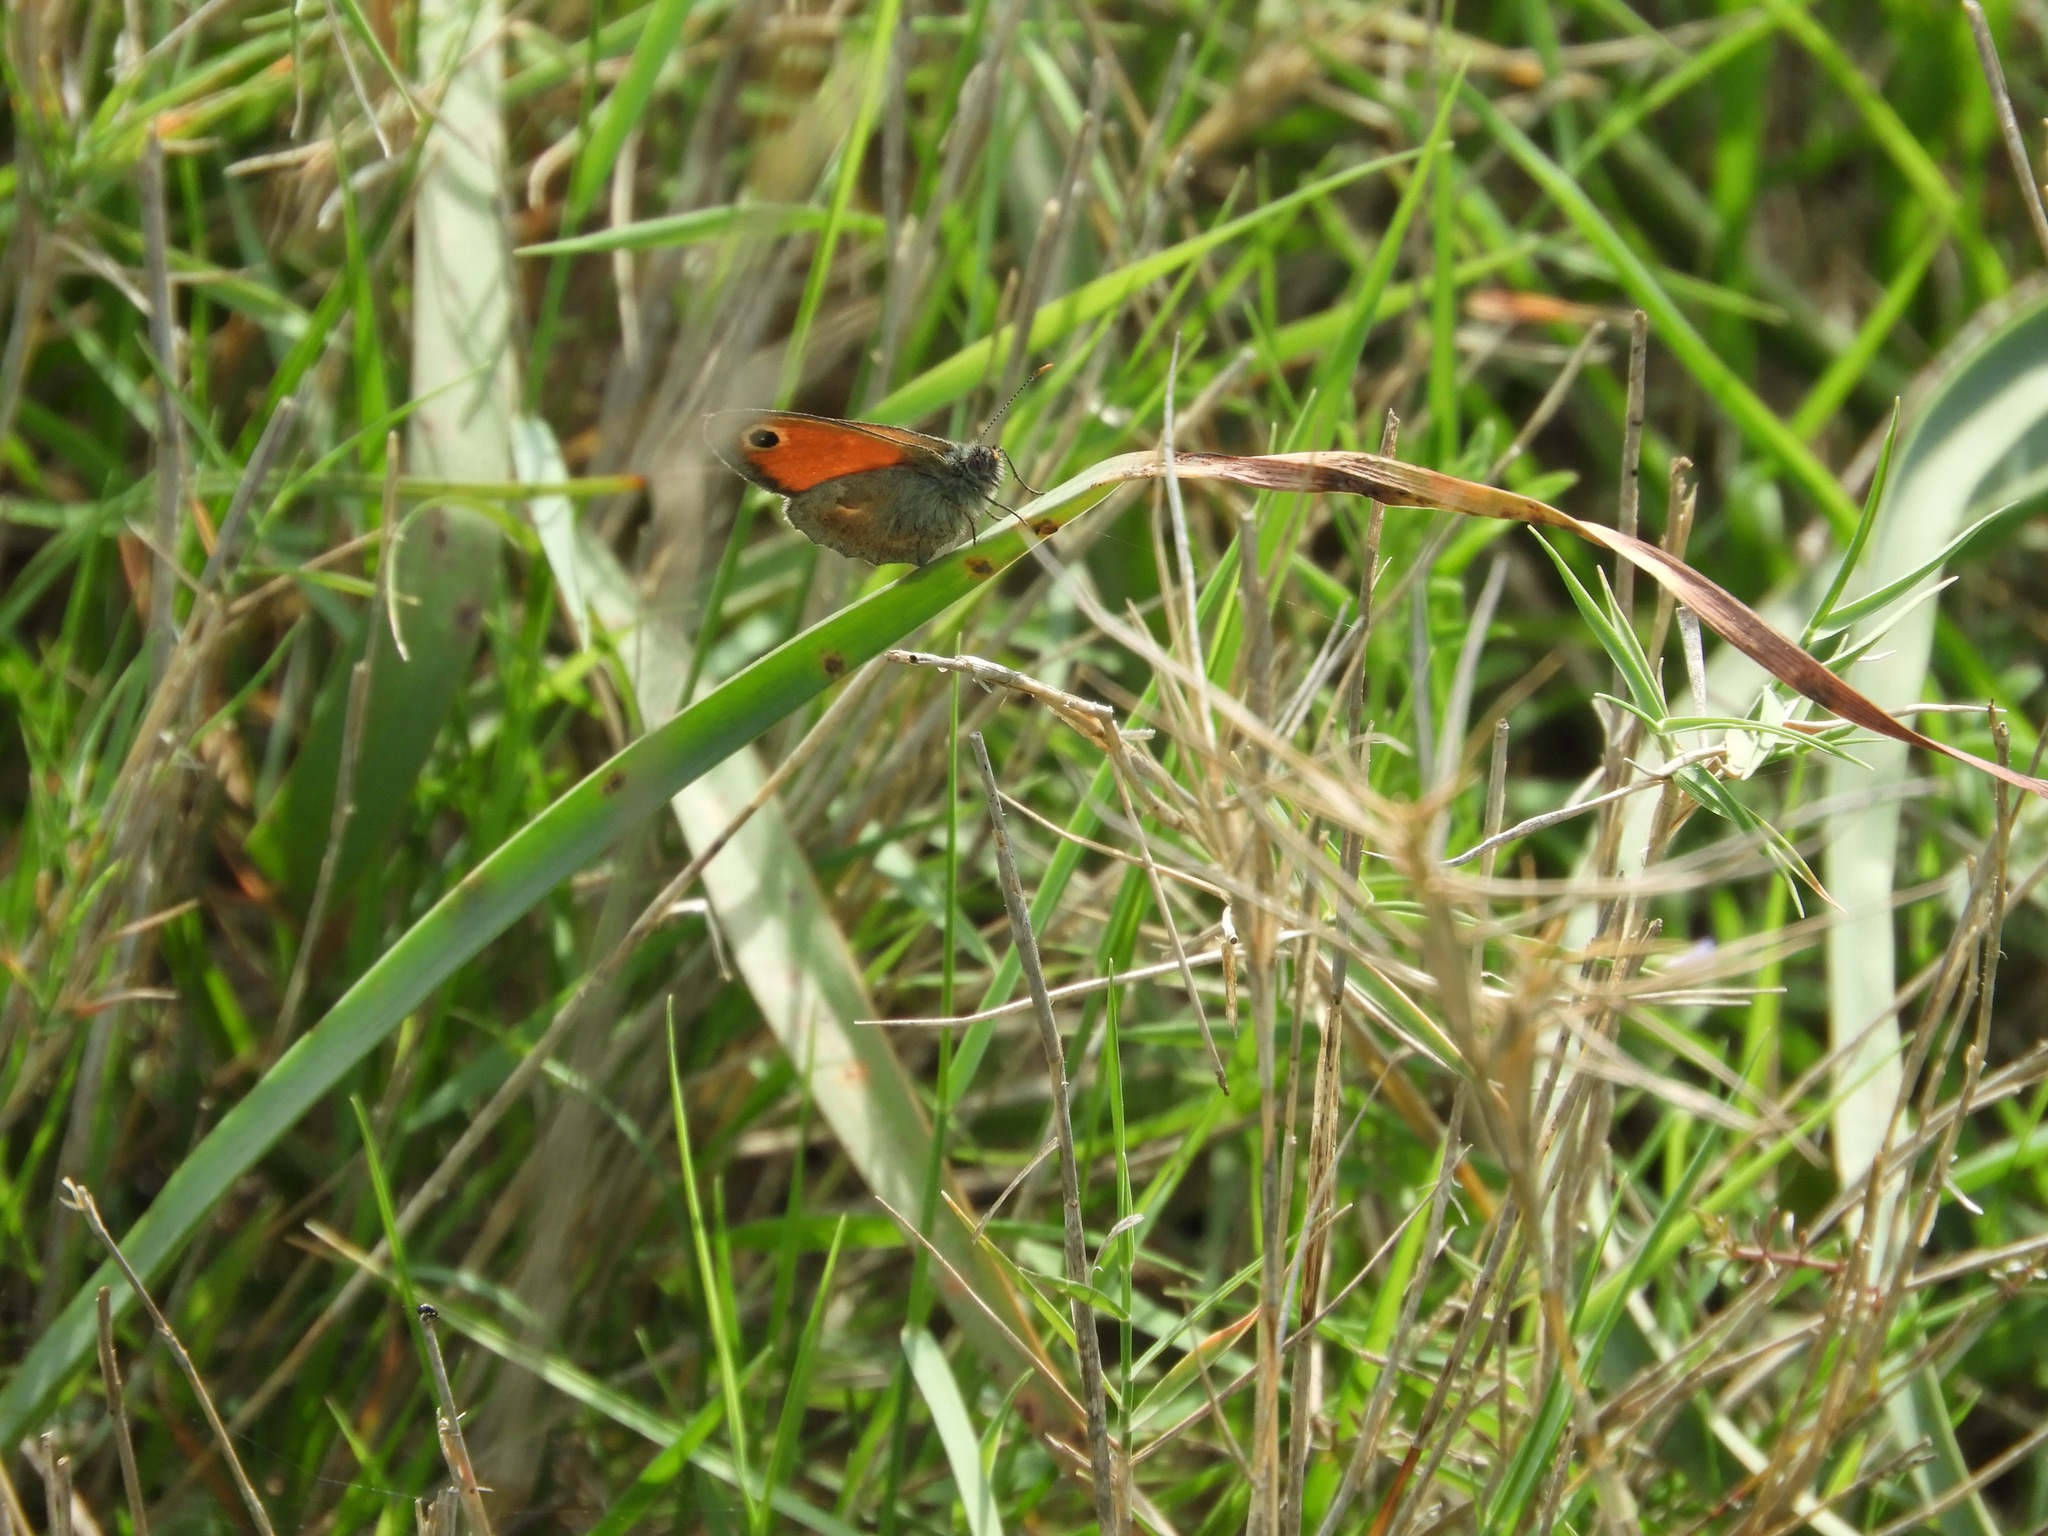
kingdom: Animalia
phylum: Arthropoda
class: Insecta
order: Lepidoptera
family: Nymphalidae
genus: Coenonympha
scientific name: Coenonympha pamphilus
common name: Small heath
